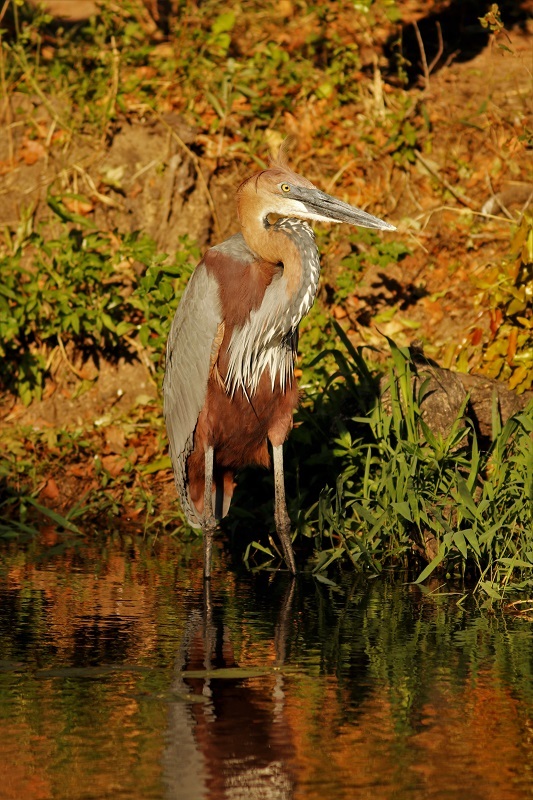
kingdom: Animalia
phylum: Chordata
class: Aves
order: Pelecaniformes
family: Ardeidae
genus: Ardea
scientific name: Ardea goliath
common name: Goliath heron
